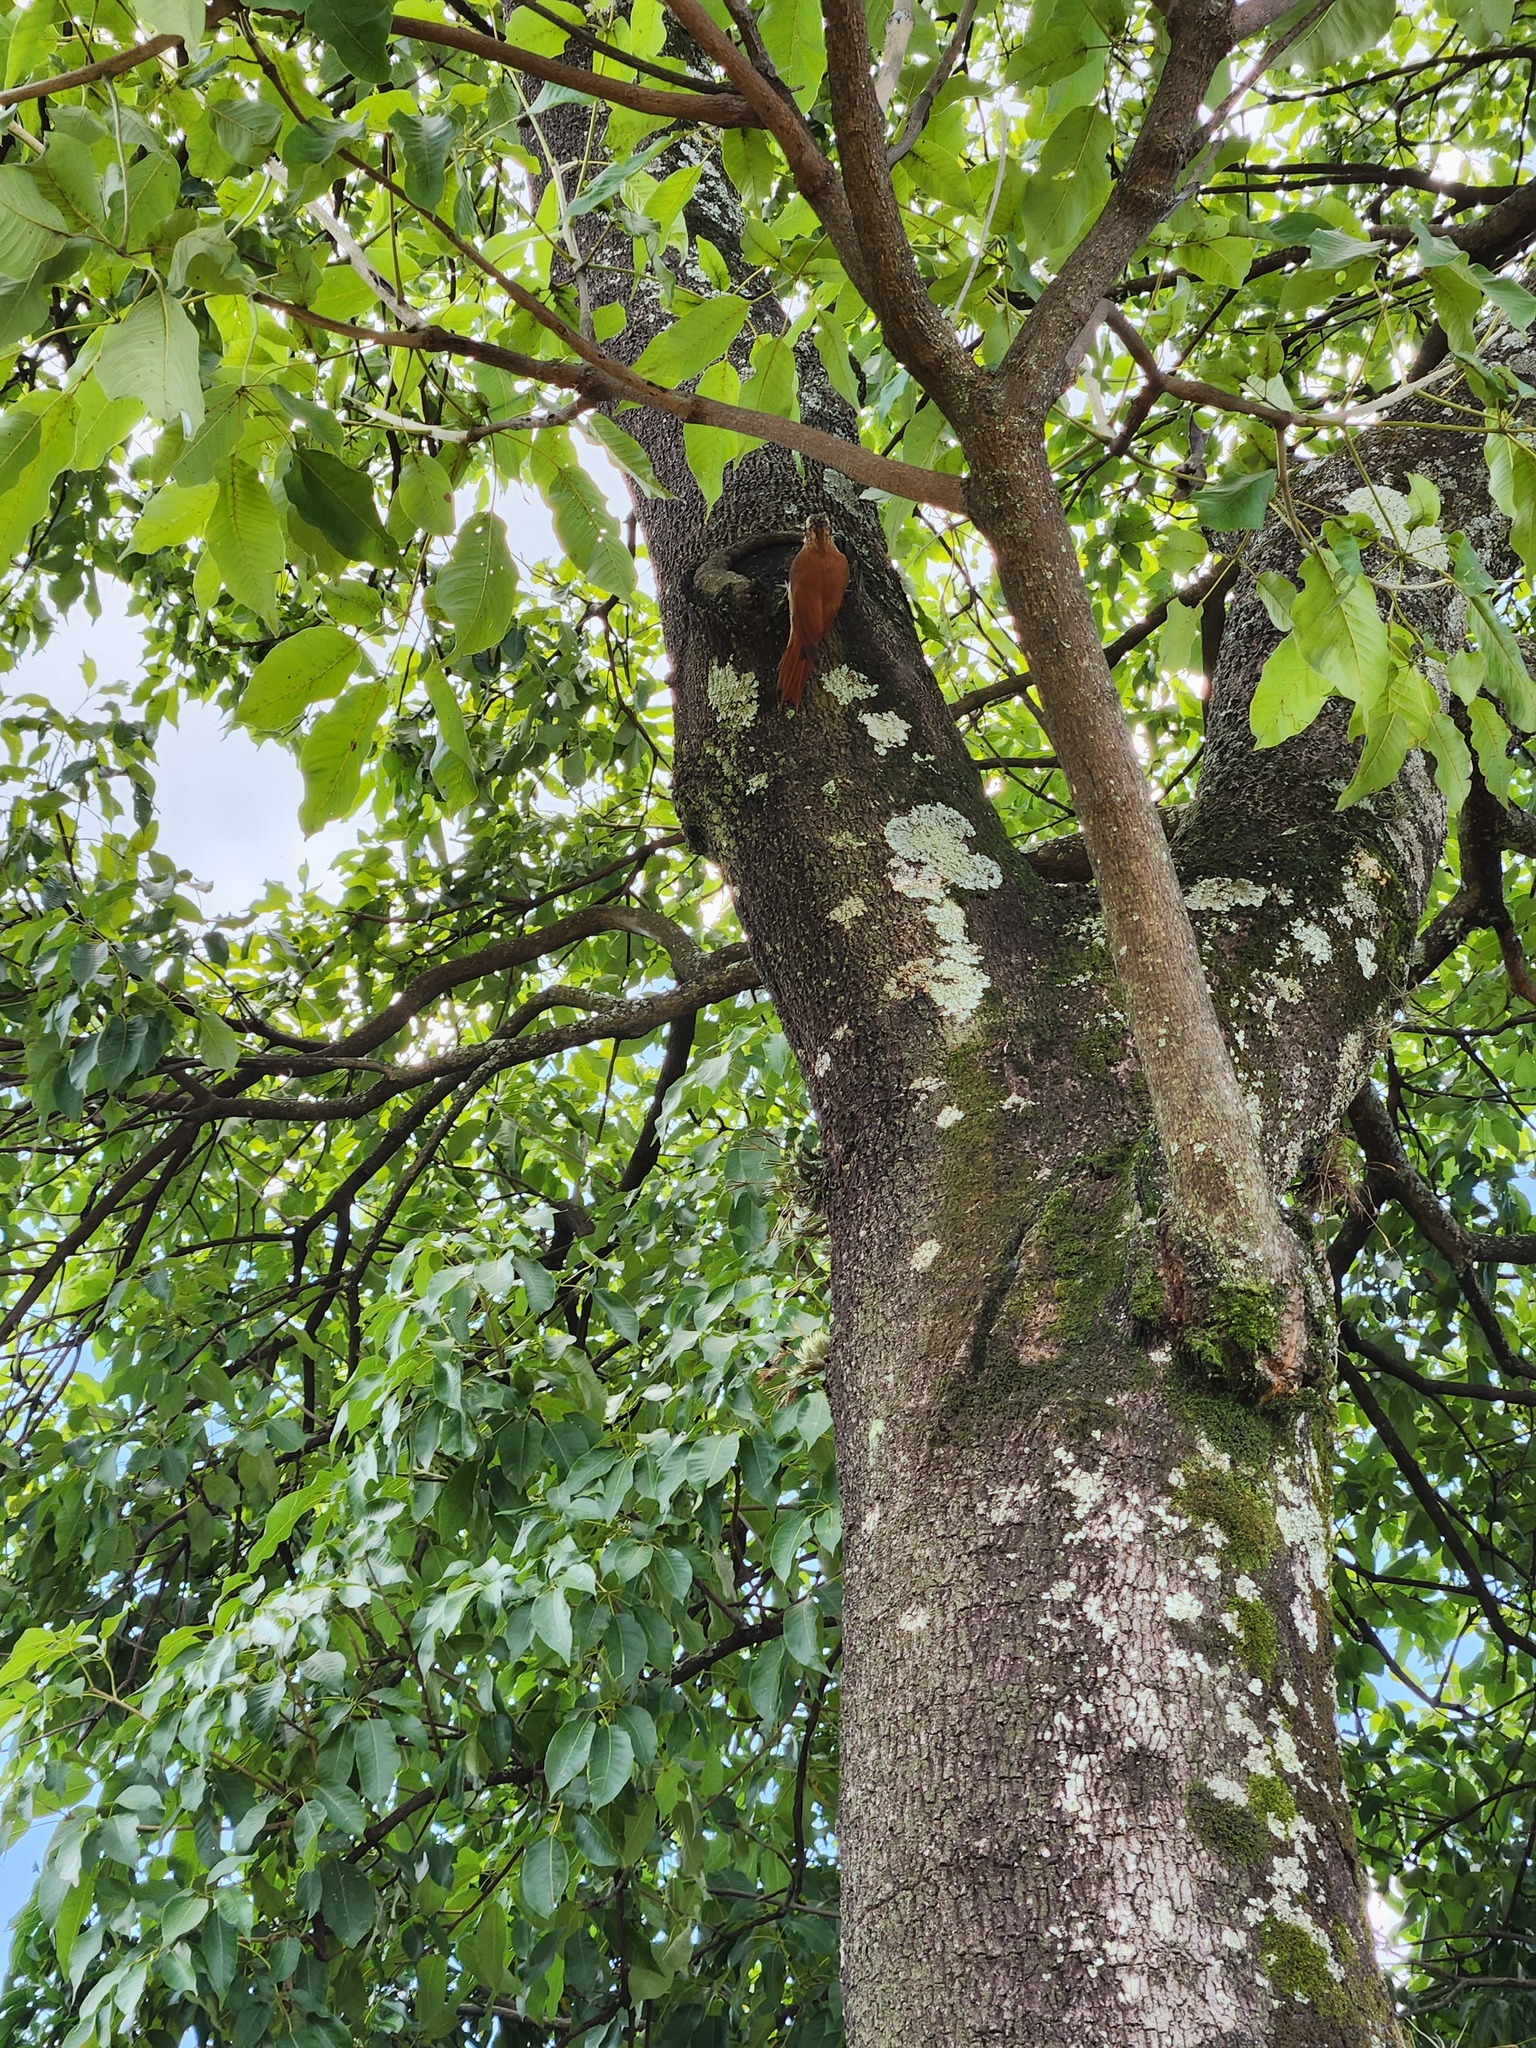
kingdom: Animalia
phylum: Chordata
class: Aves
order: Passeriformes
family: Furnariidae
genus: Lepidocolaptes
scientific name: Lepidocolaptes angustirostris
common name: Narrow-billed woodcreeper
